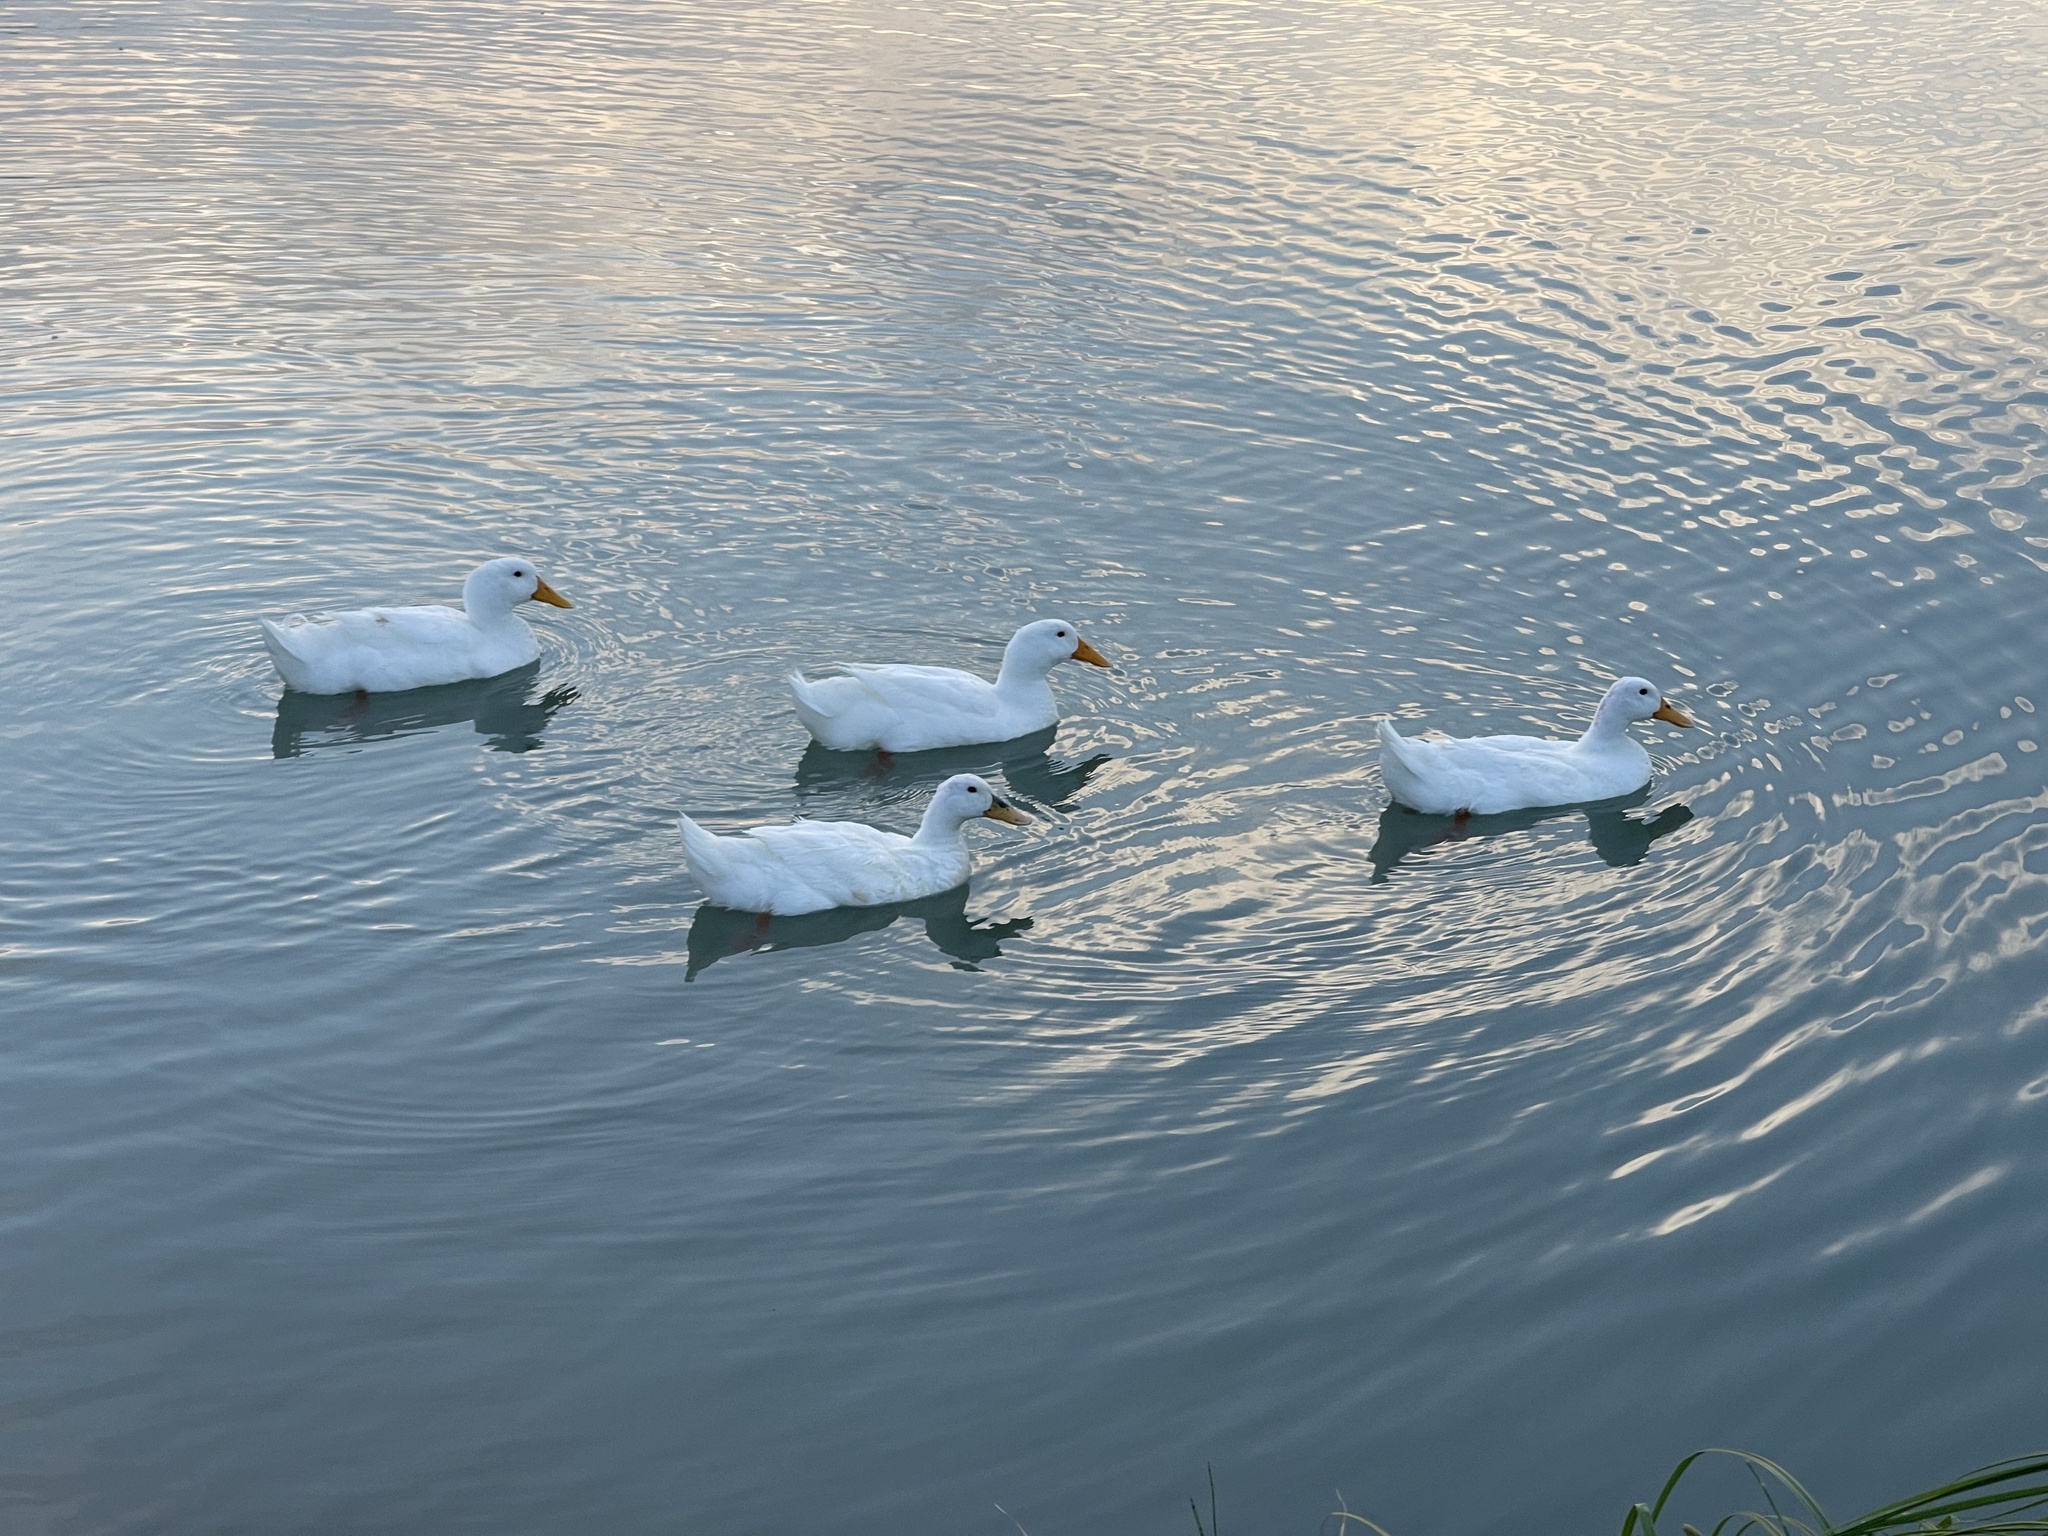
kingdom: Animalia
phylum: Chordata
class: Aves
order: Anseriformes
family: Anatidae
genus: Anas
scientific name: Anas platyrhynchos
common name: Mallard
